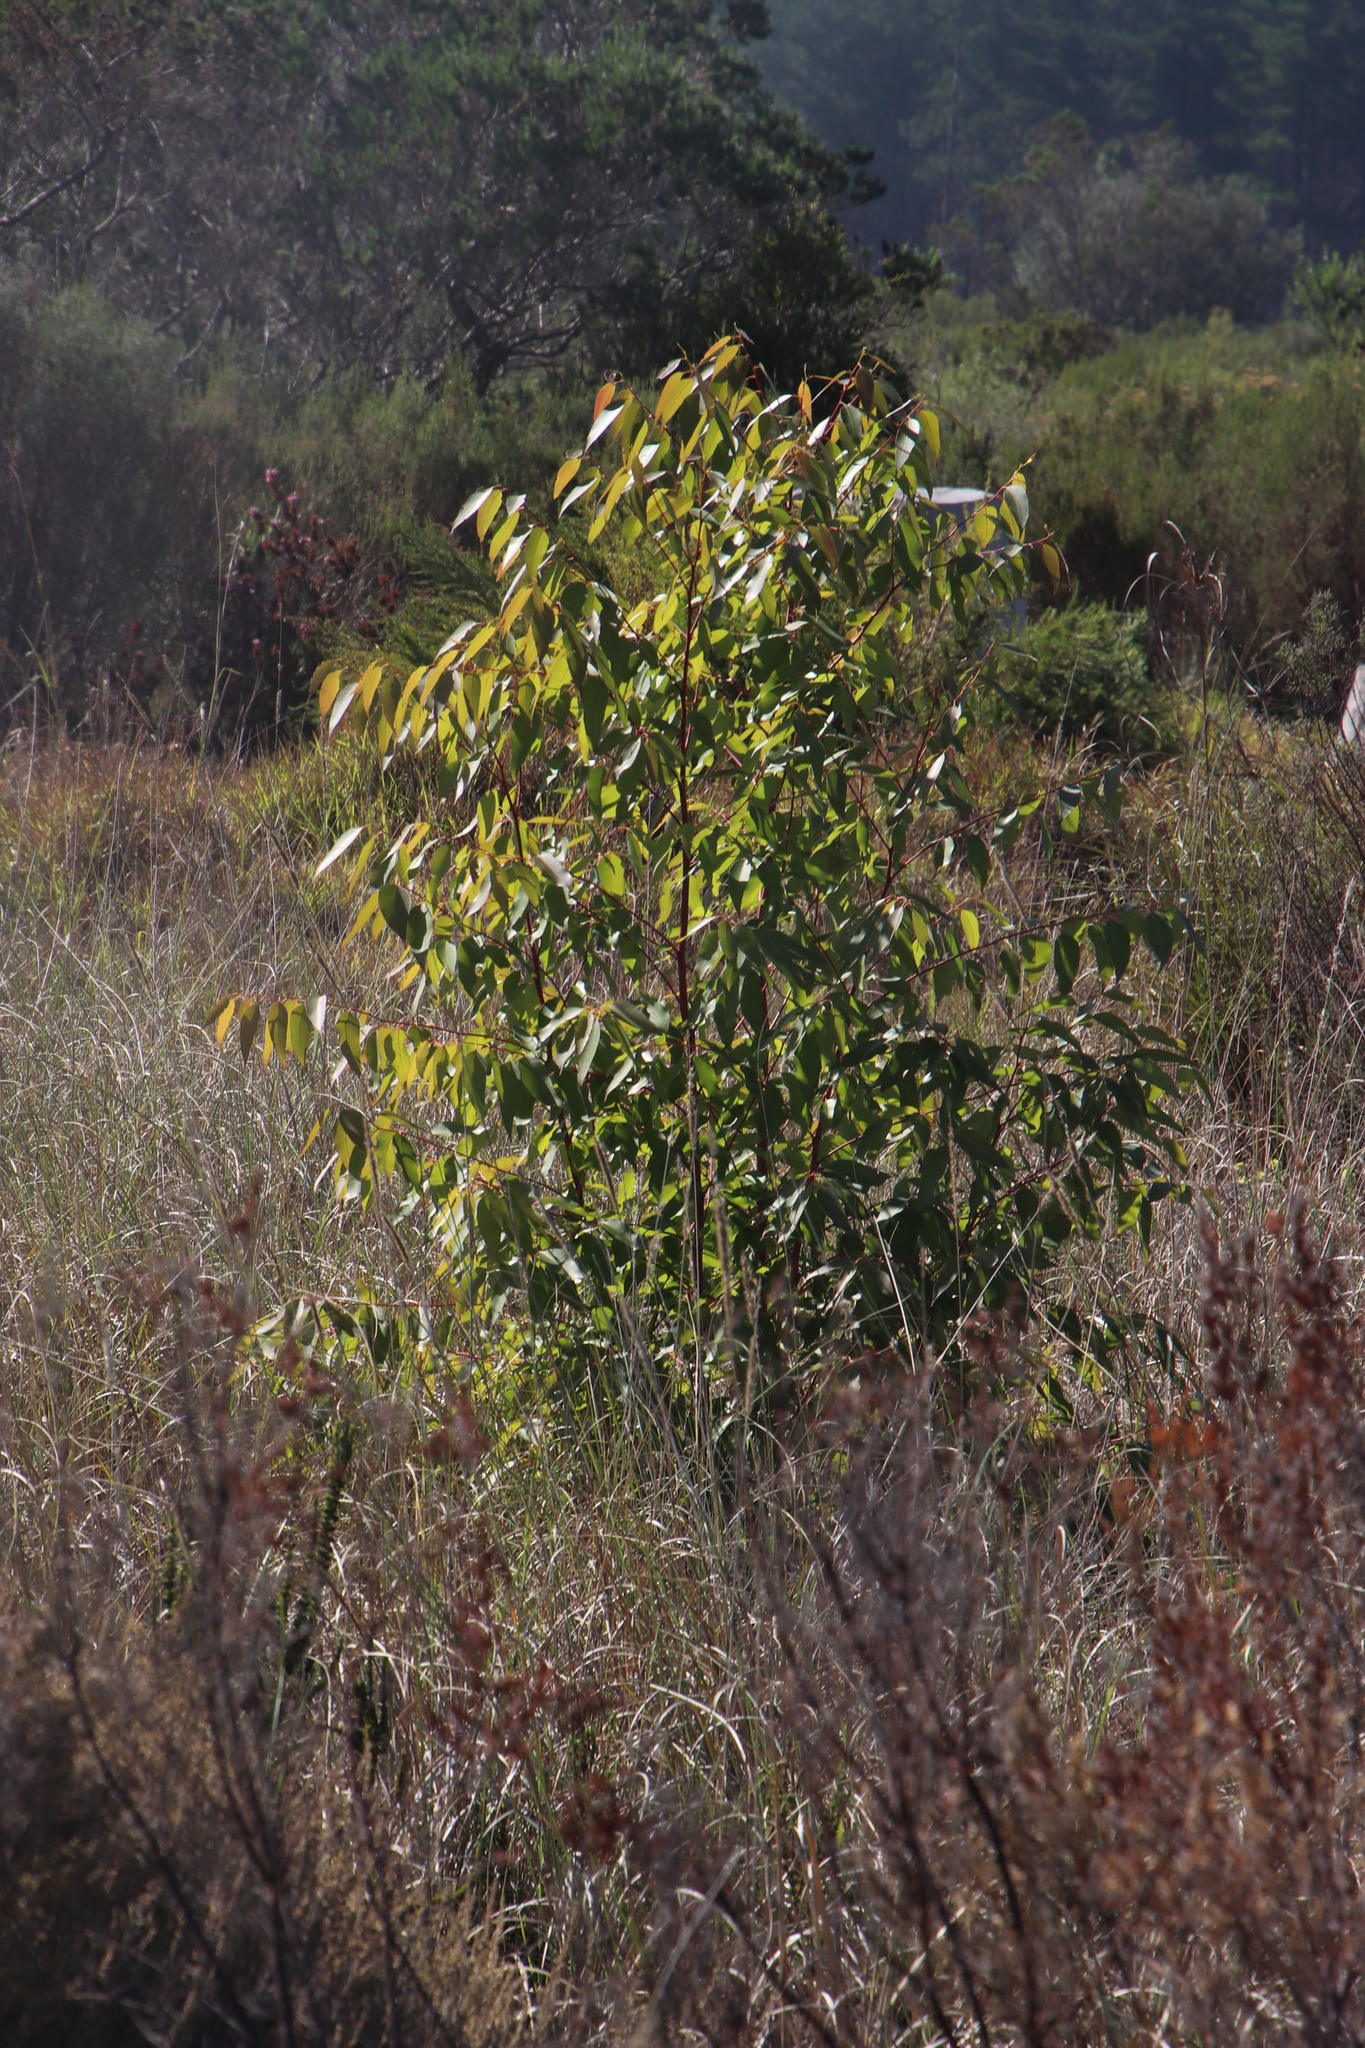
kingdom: Plantae
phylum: Tracheophyta
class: Magnoliopsida
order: Myrtales
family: Myrtaceae
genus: Eucalyptus
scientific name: Eucalyptus botryoides
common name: Bangalay
